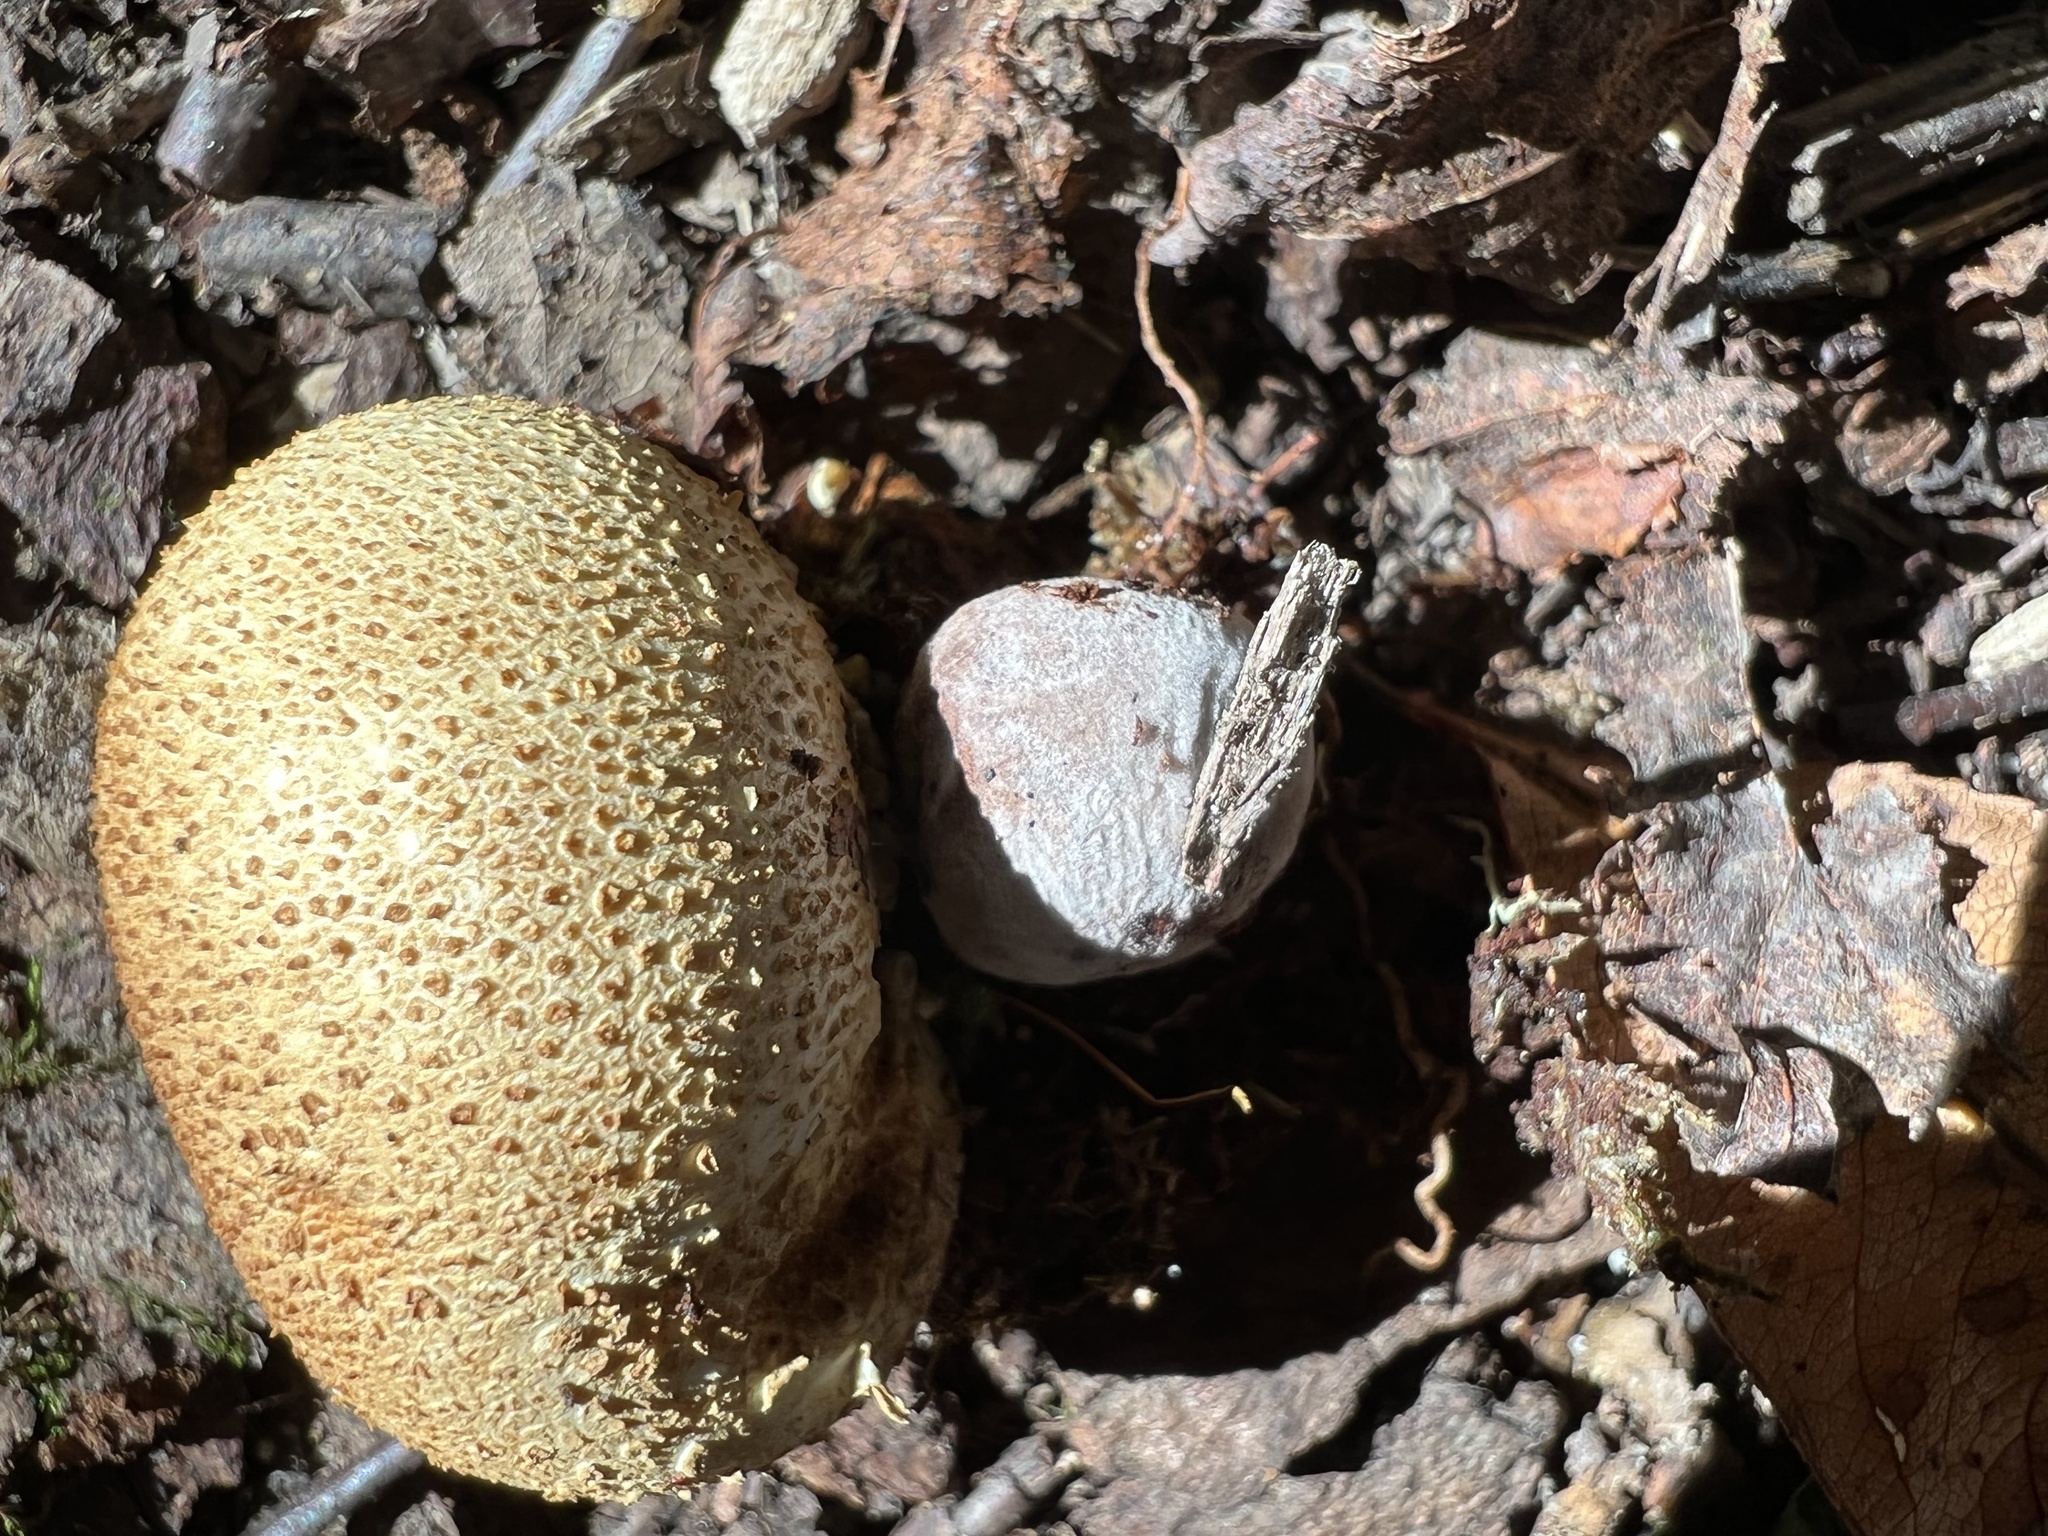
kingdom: Fungi
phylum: Basidiomycota
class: Agaricomycetes
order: Boletales
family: Boletaceae
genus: Pseudoboletus
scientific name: Pseudoboletus parasiticus
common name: Parasitic bolete
